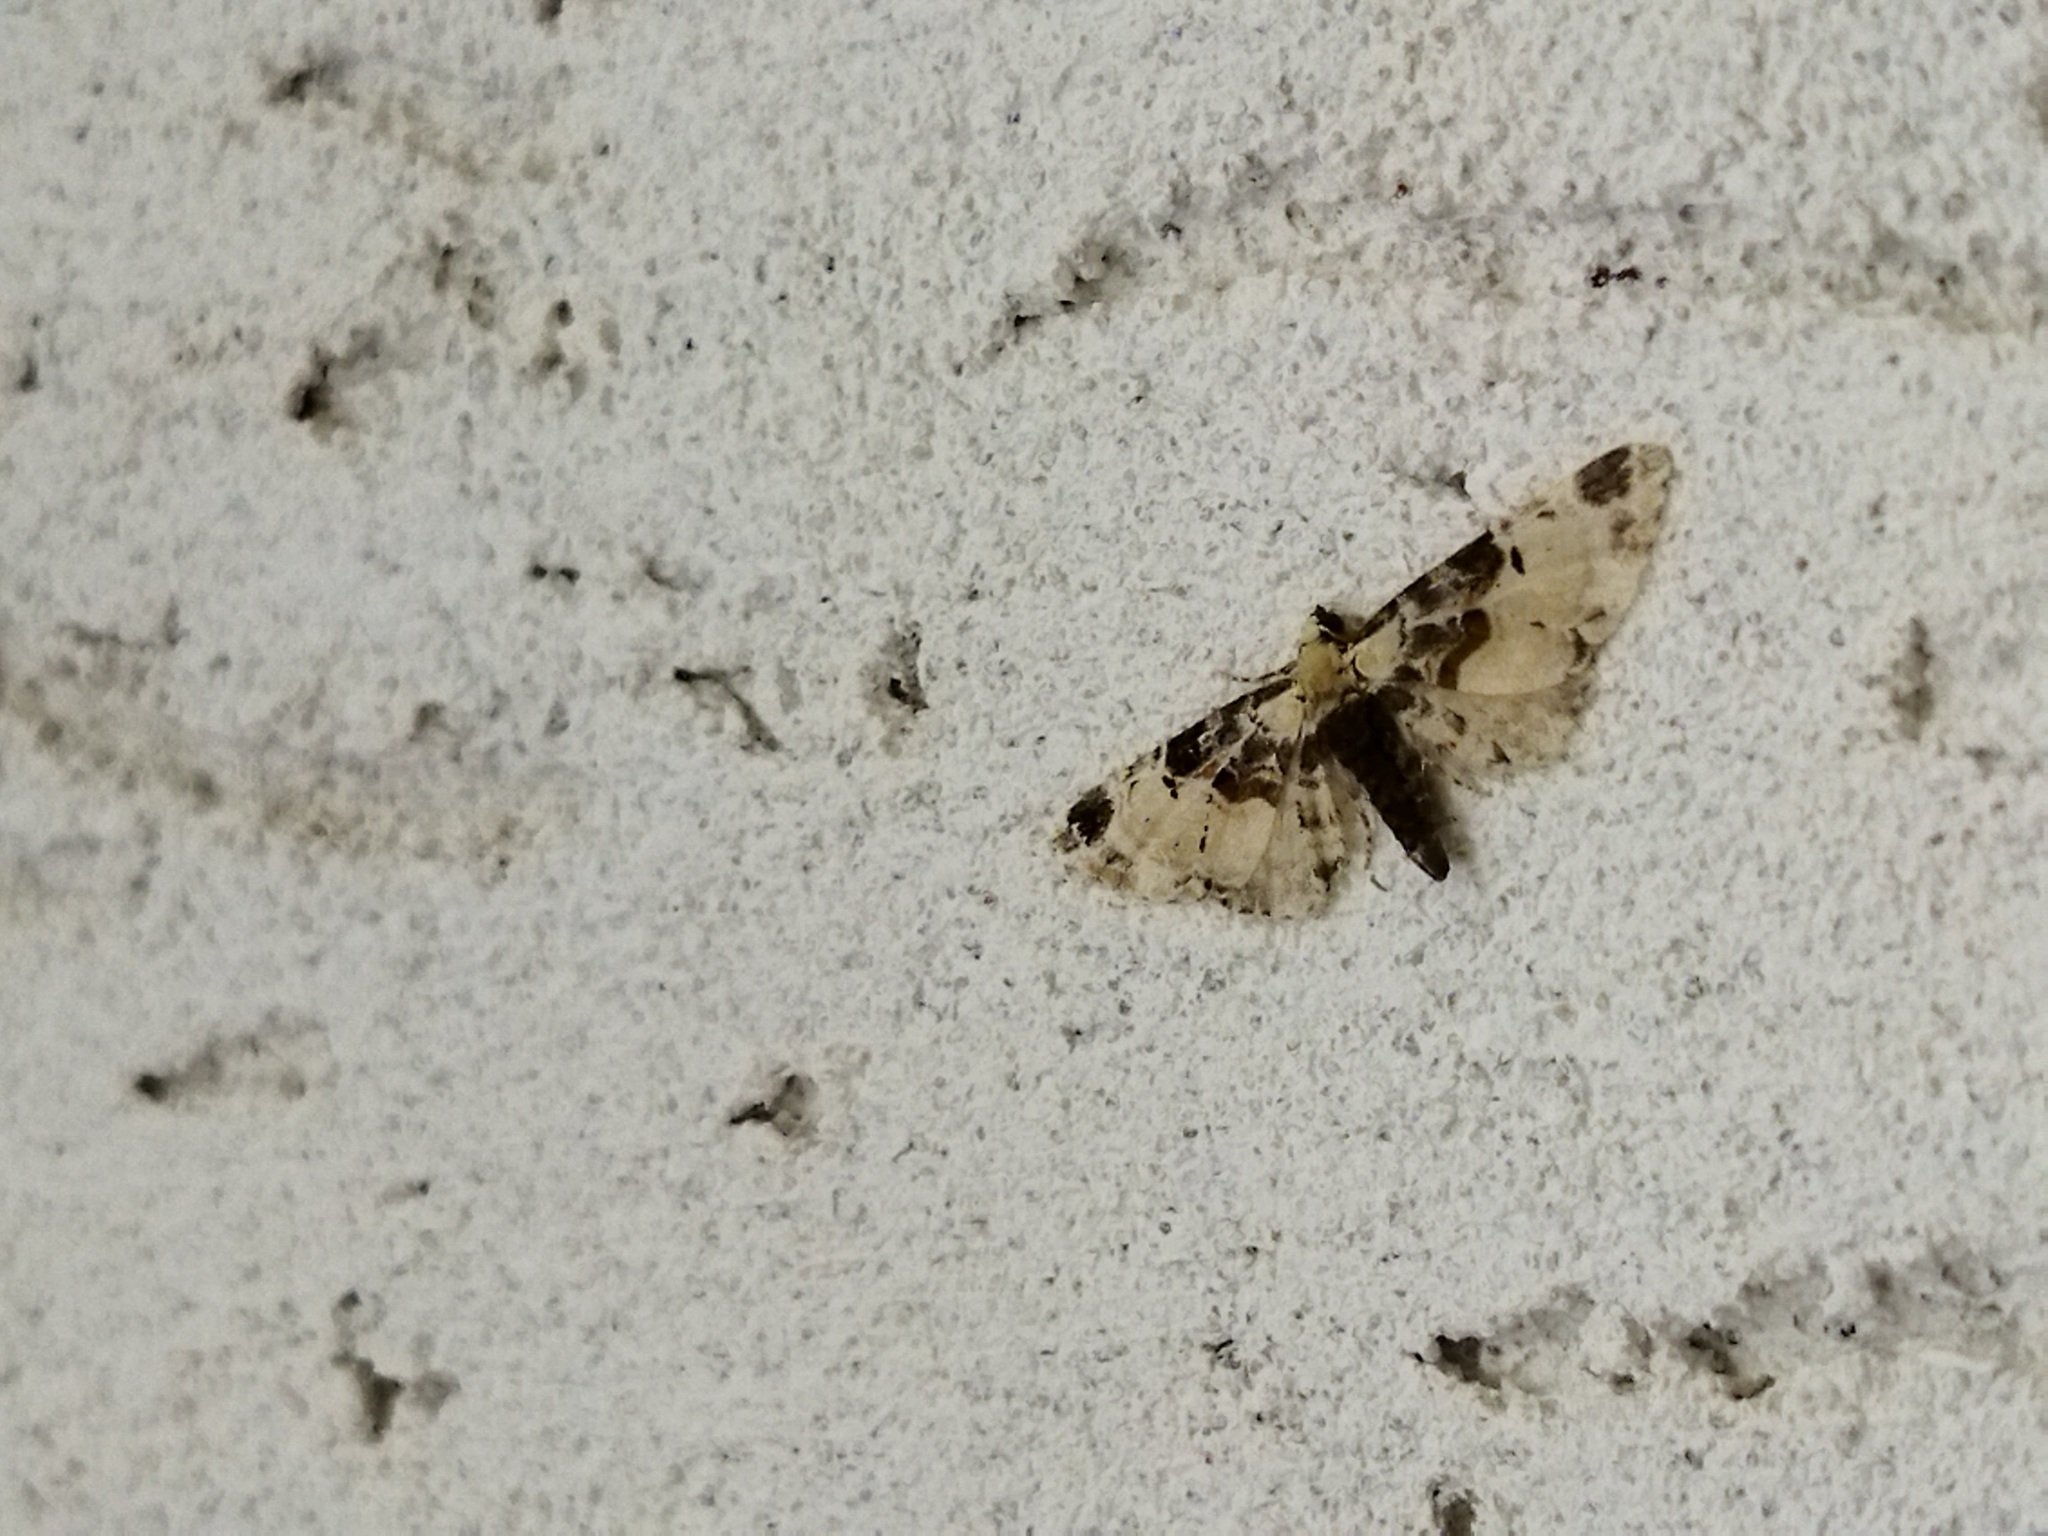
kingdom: Animalia
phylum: Arthropoda
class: Insecta
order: Lepidoptera
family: Geometridae
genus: Eupithecia
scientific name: Eupithecia extremata
